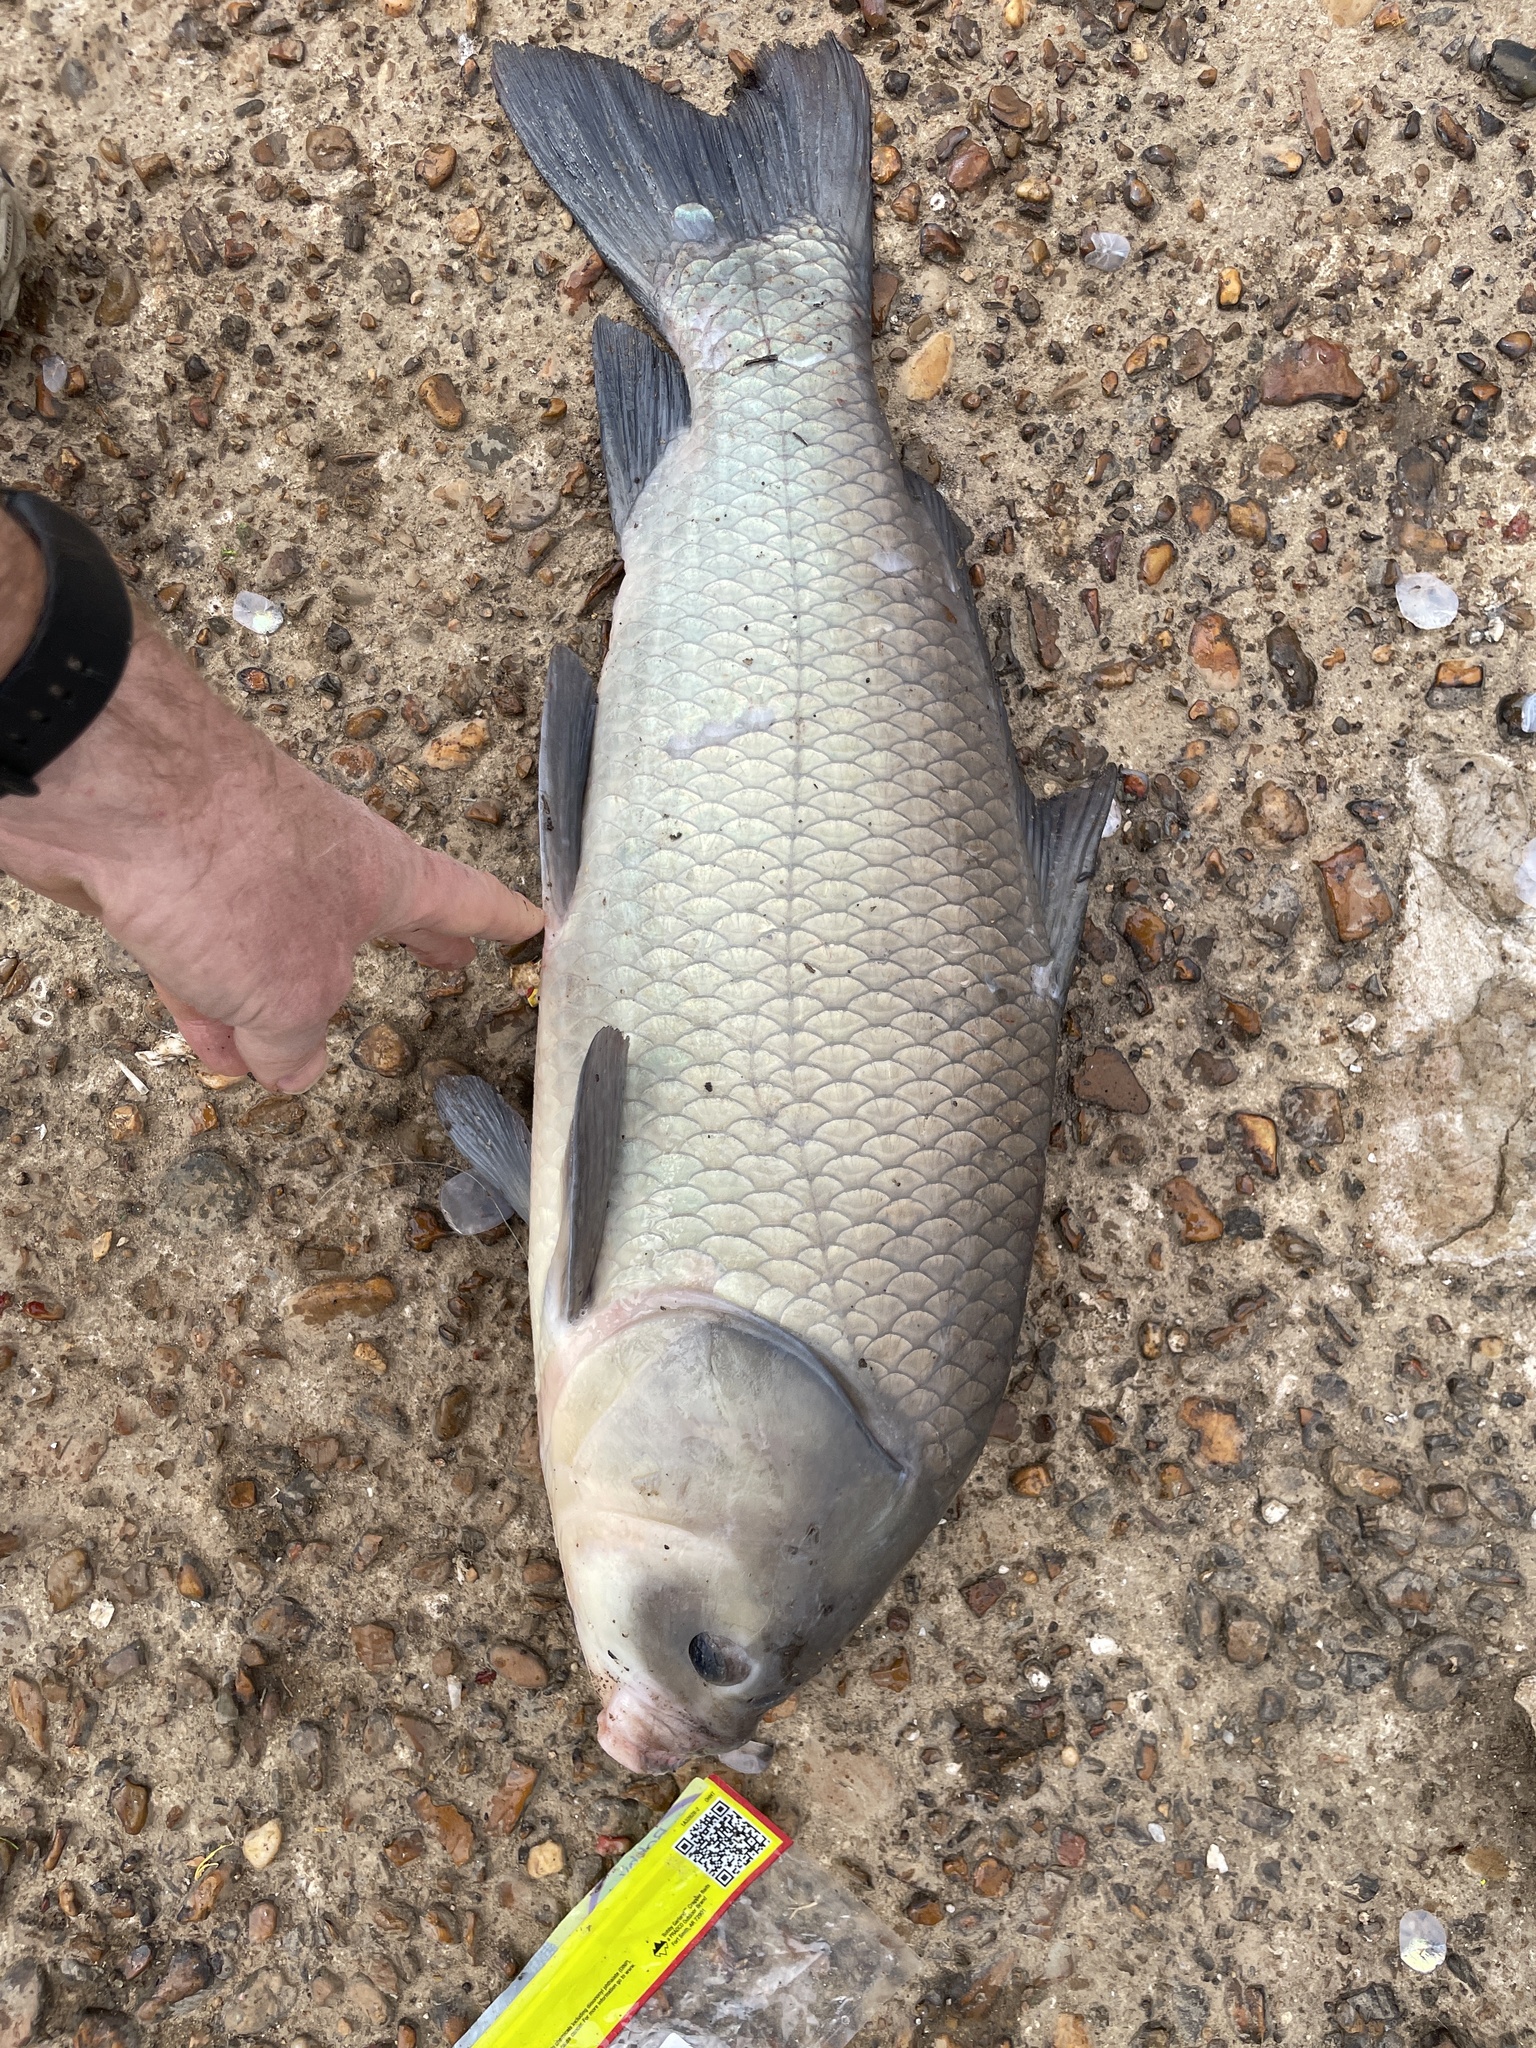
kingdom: Animalia
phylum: Chordata
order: Cypriniformes
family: Catostomidae
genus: Ictiobus
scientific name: Ictiobus cyprinellus
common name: Bigmouth buffalo
